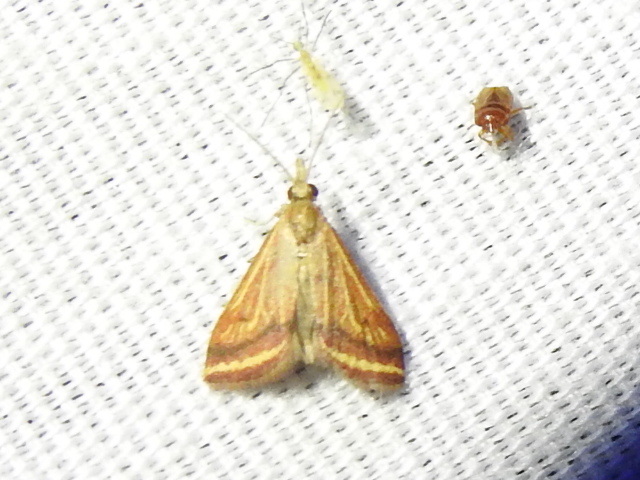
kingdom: Animalia
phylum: Arthropoda
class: Insecta
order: Lepidoptera
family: Crambidae
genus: Microtheoris
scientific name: Microtheoris ophionalis
